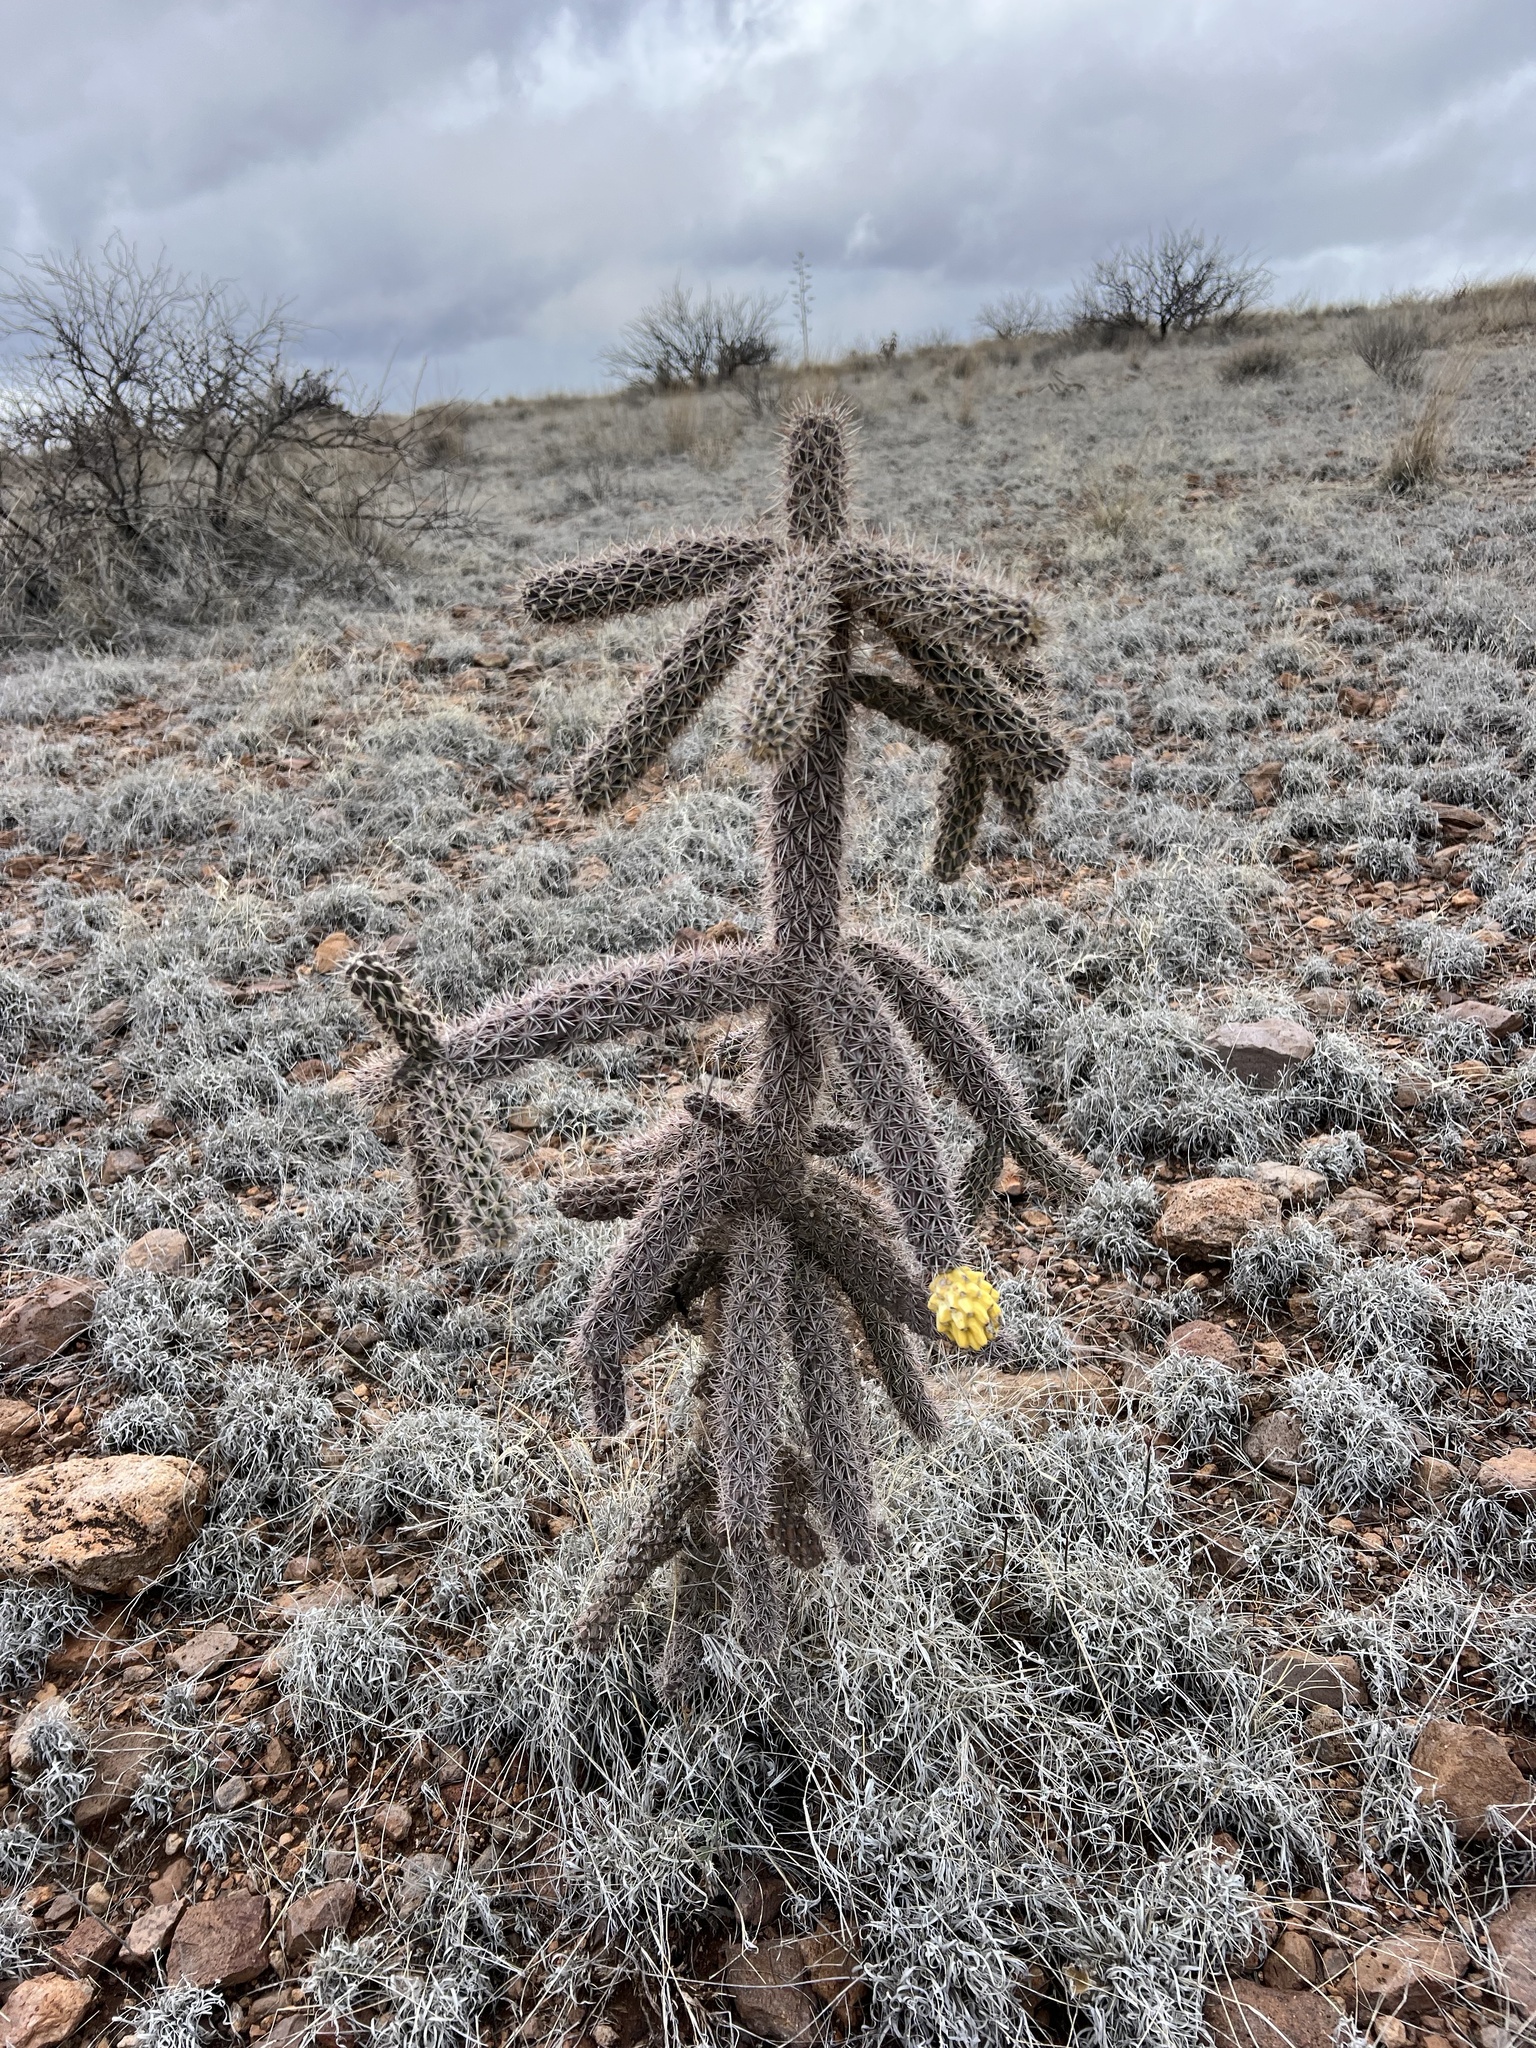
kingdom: Plantae
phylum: Tracheophyta
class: Magnoliopsida
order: Caryophyllales
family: Cactaceae
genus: Cylindropuntia
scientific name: Cylindropuntia imbricata
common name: Candelabrum cactus
